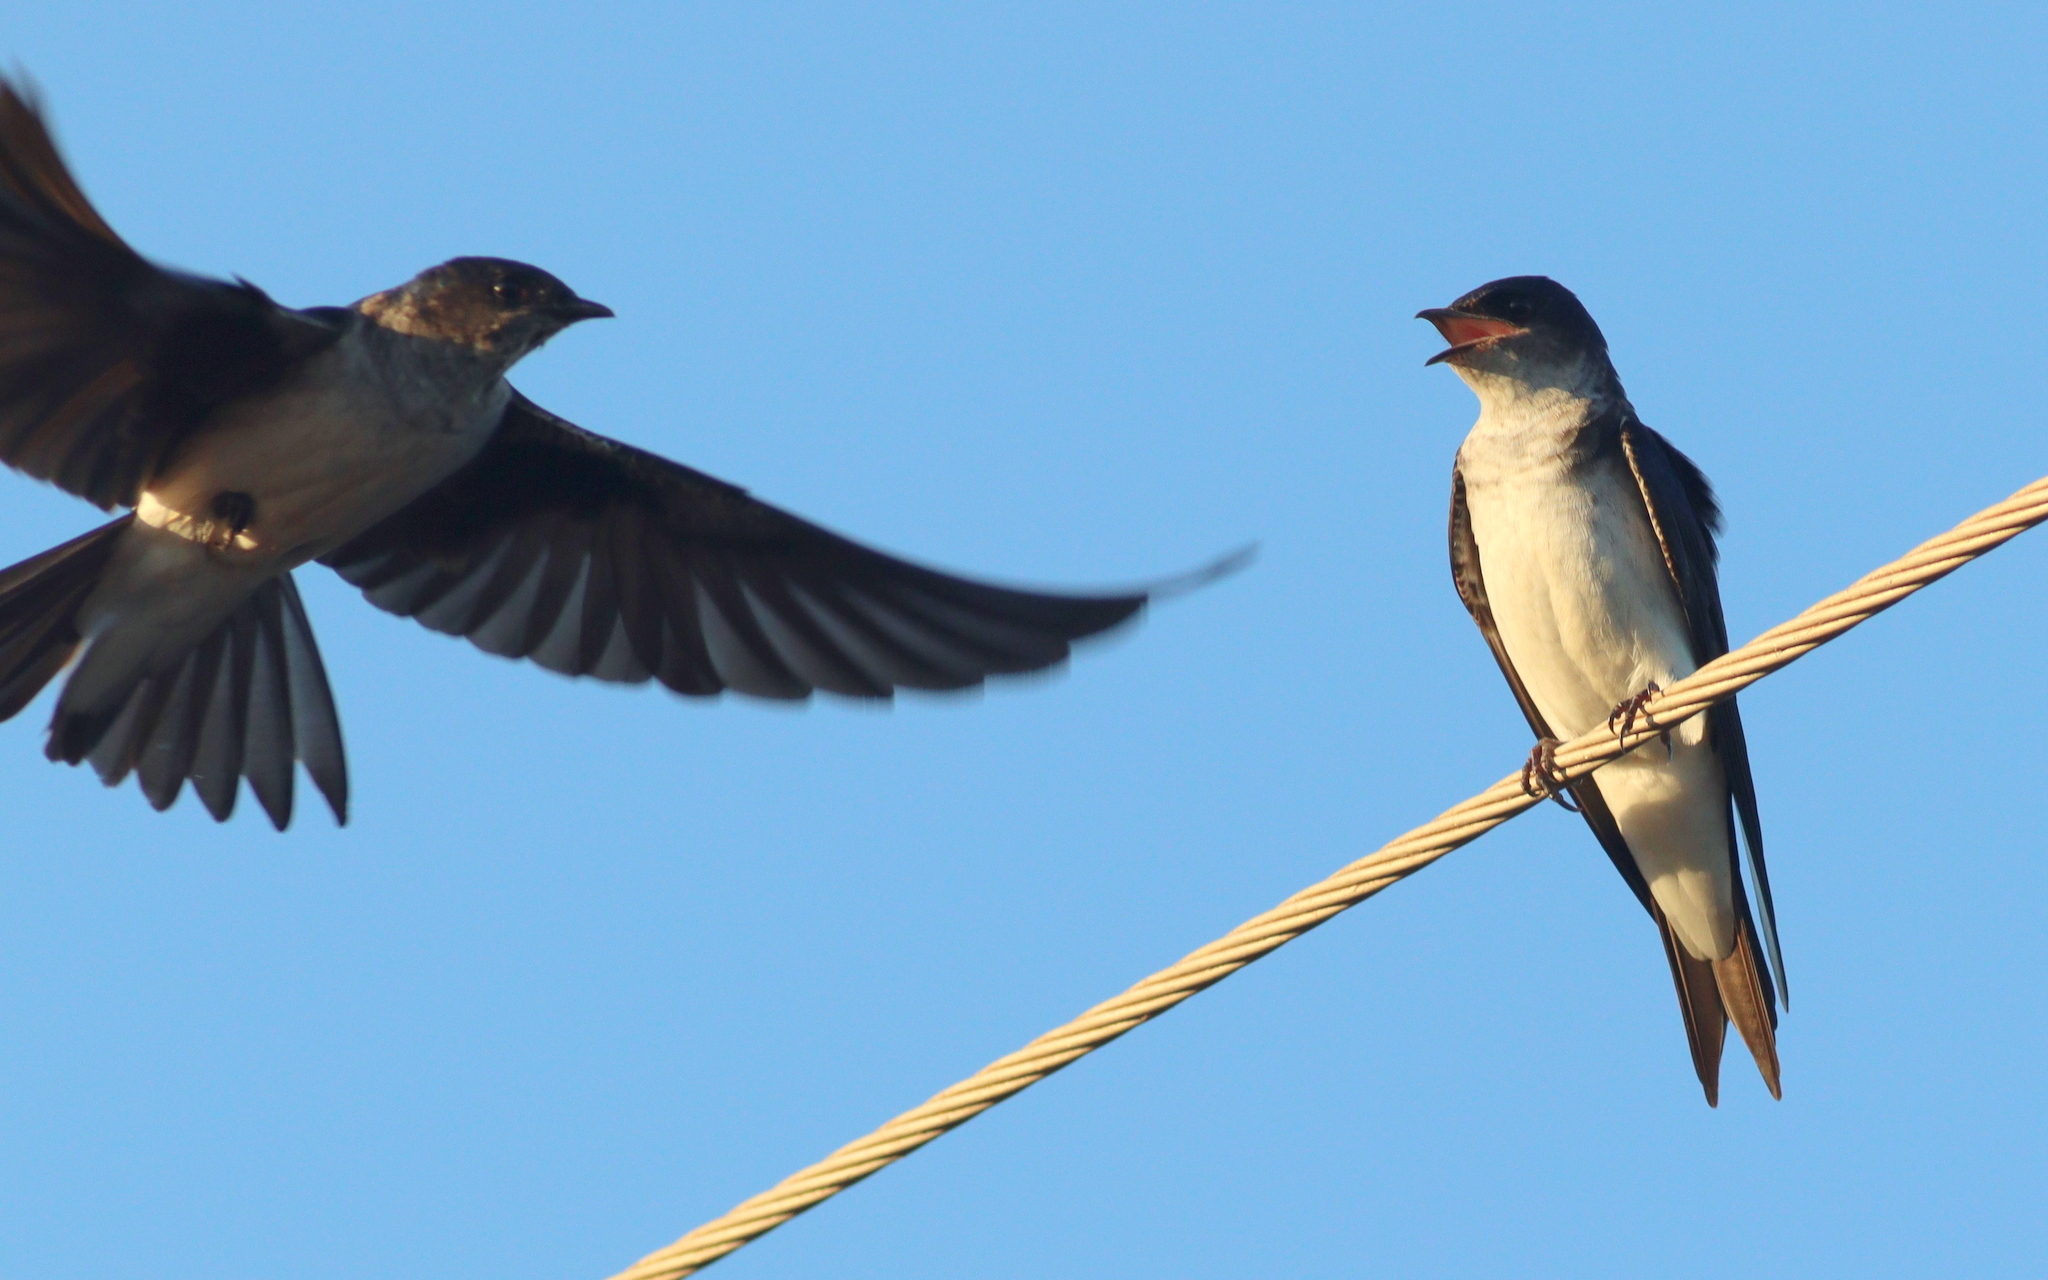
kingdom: Animalia
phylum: Chordata
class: Aves
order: Passeriformes
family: Hirundinidae
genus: Progne
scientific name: Progne chalybea
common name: Grey-breasted martin
